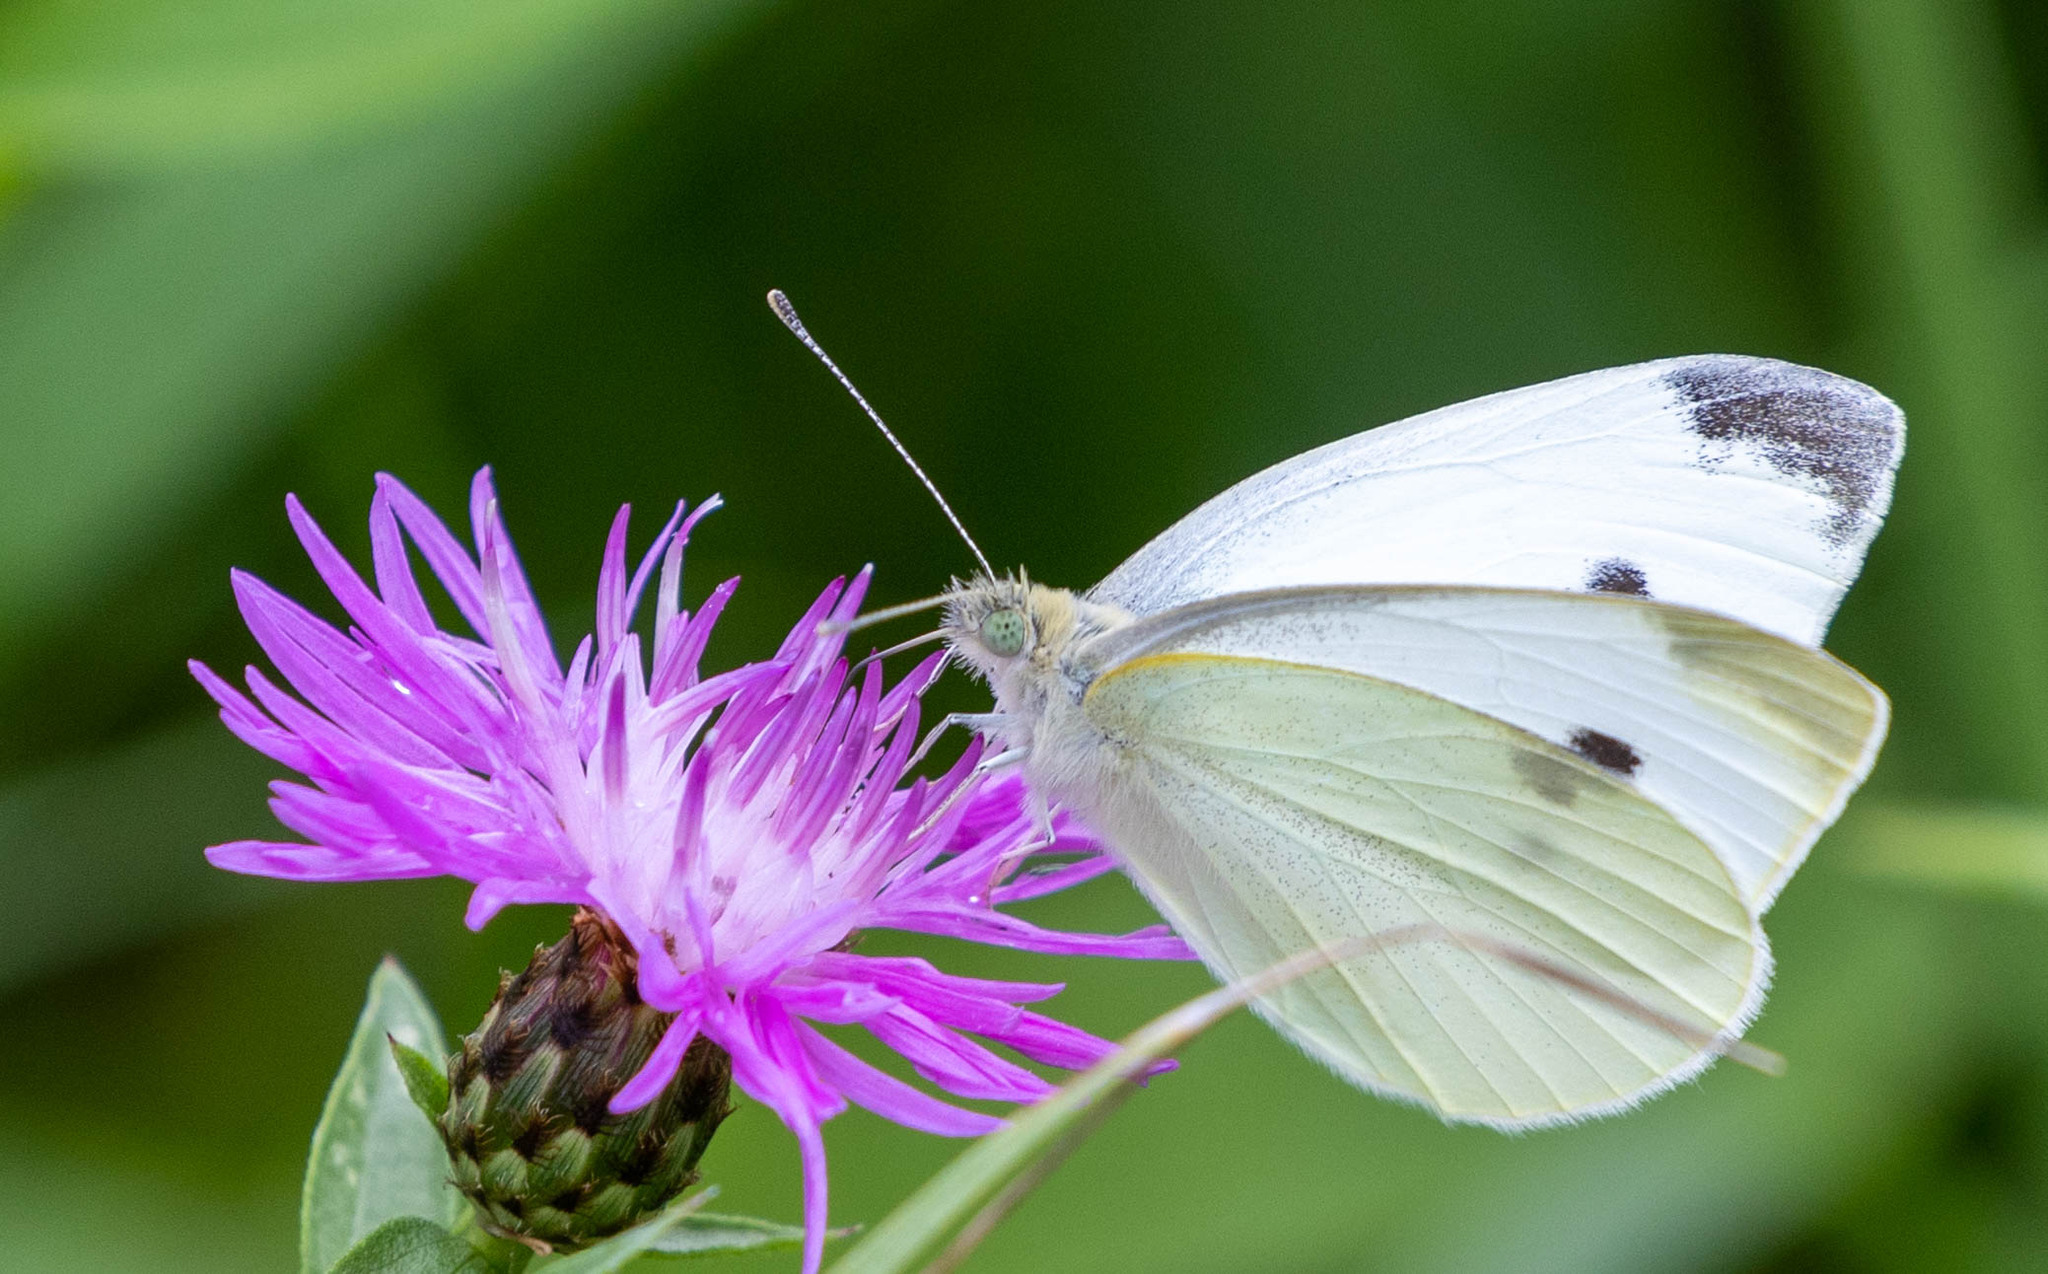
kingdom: Animalia
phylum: Arthropoda
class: Insecta
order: Lepidoptera
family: Pieridae
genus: Pieris
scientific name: Pieris rapae
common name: Small white
